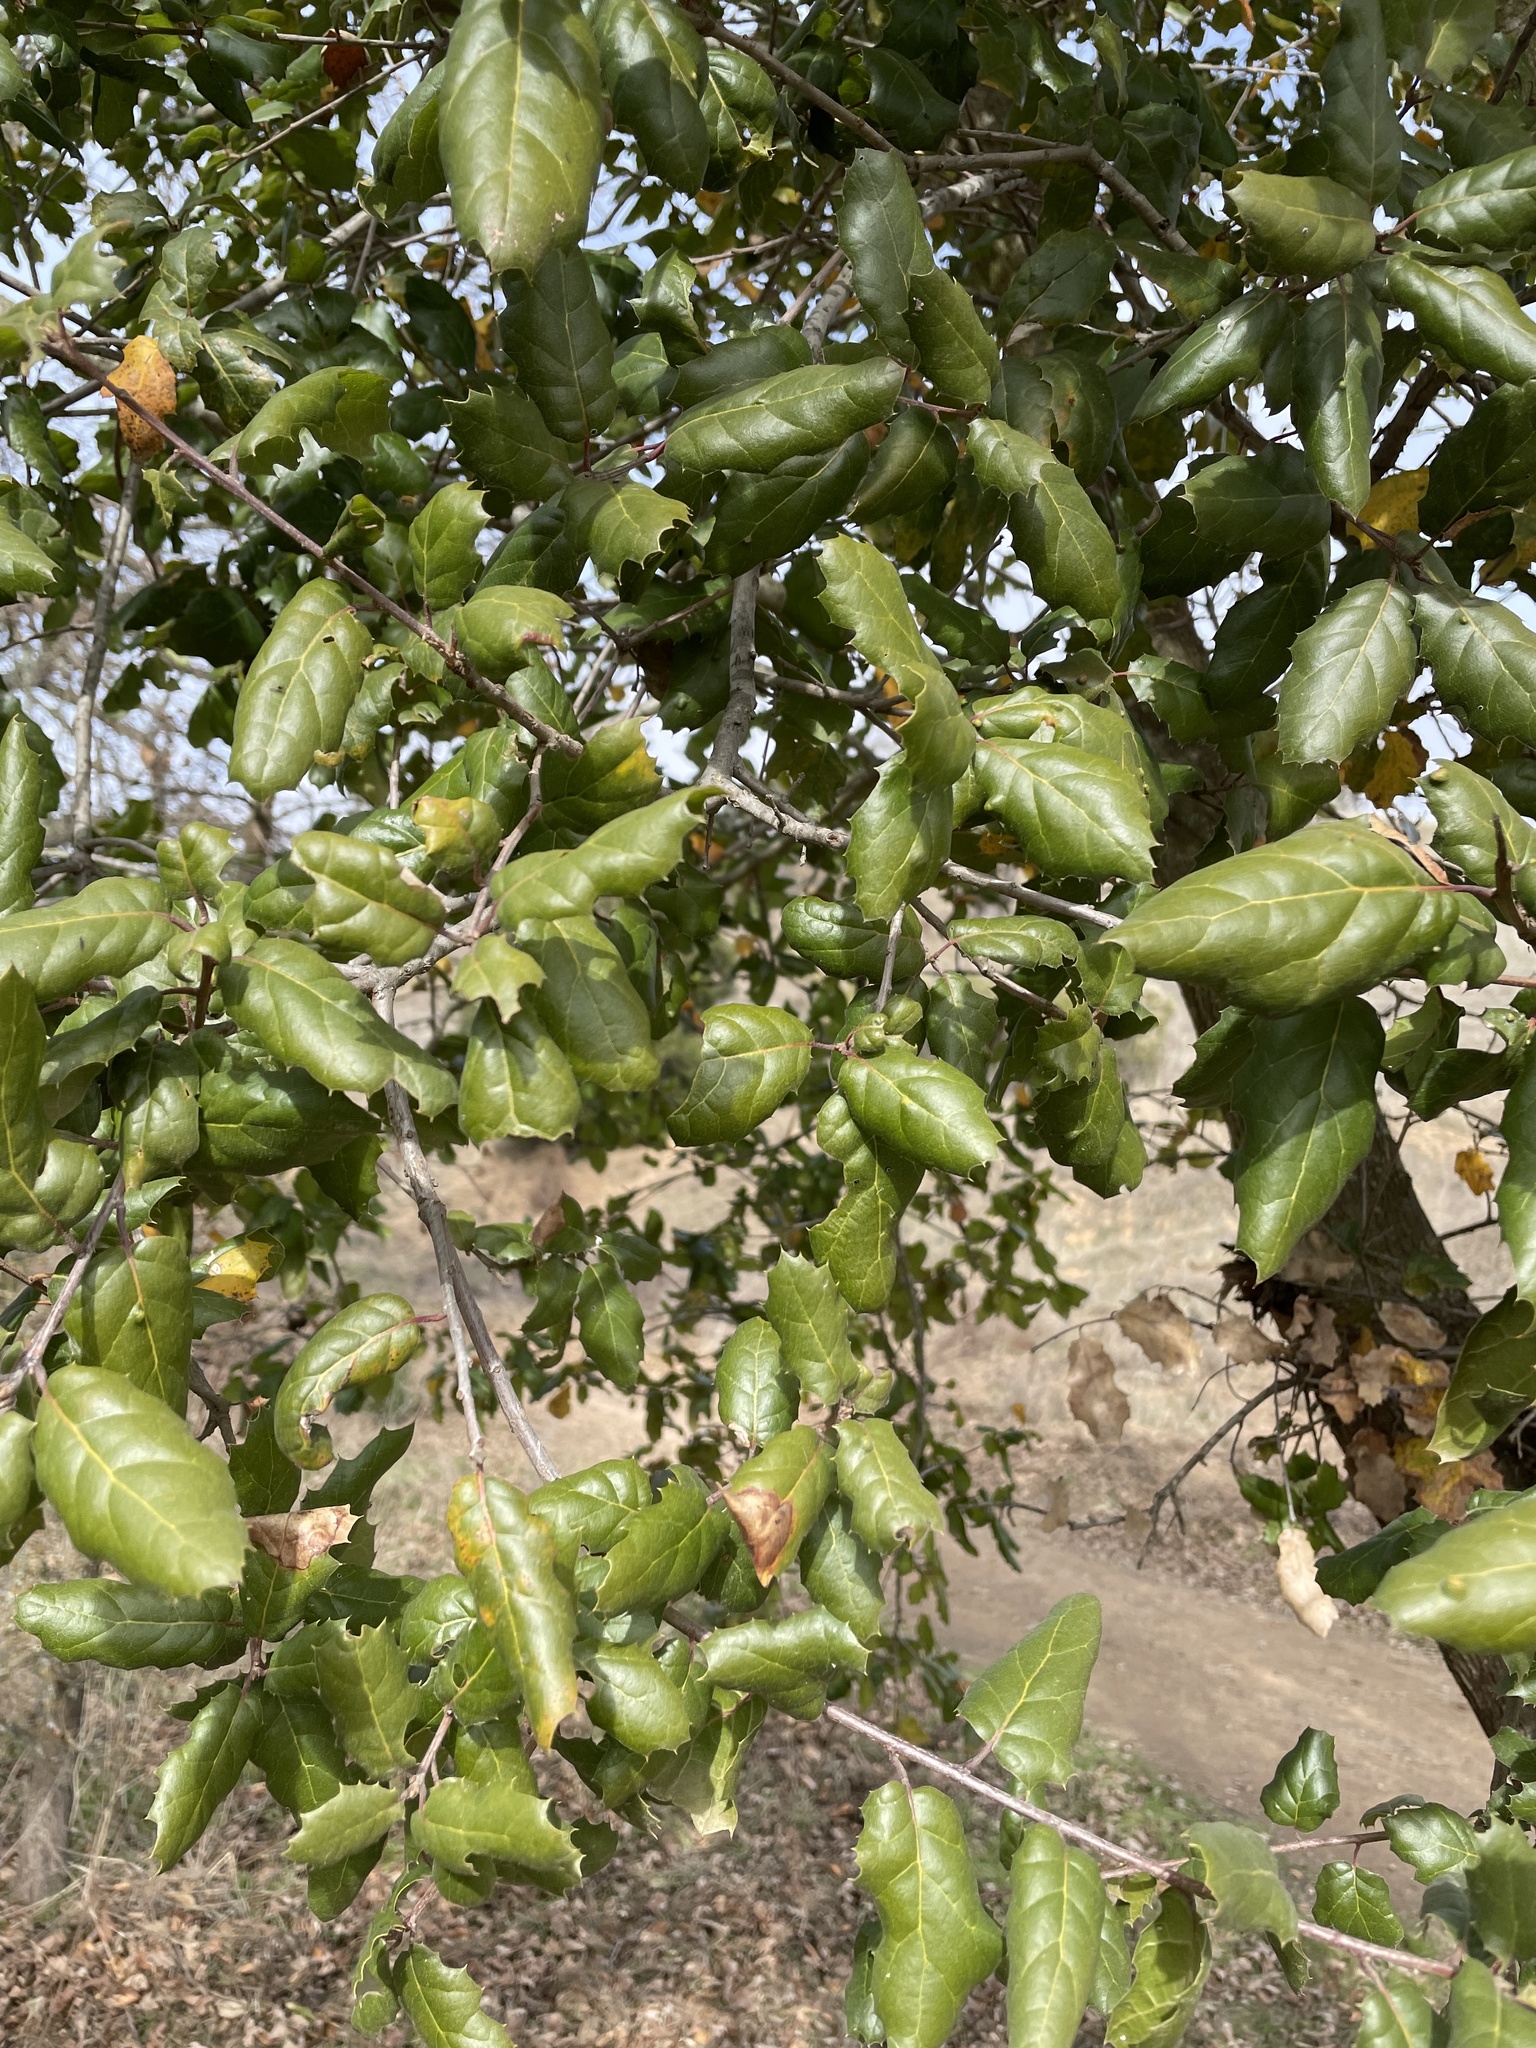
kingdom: Plantae
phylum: Tracheophyta
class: Magnoliopsida
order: Fagales
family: Fagaceae
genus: Quercus
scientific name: Quercus agrifolia
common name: California live oak
